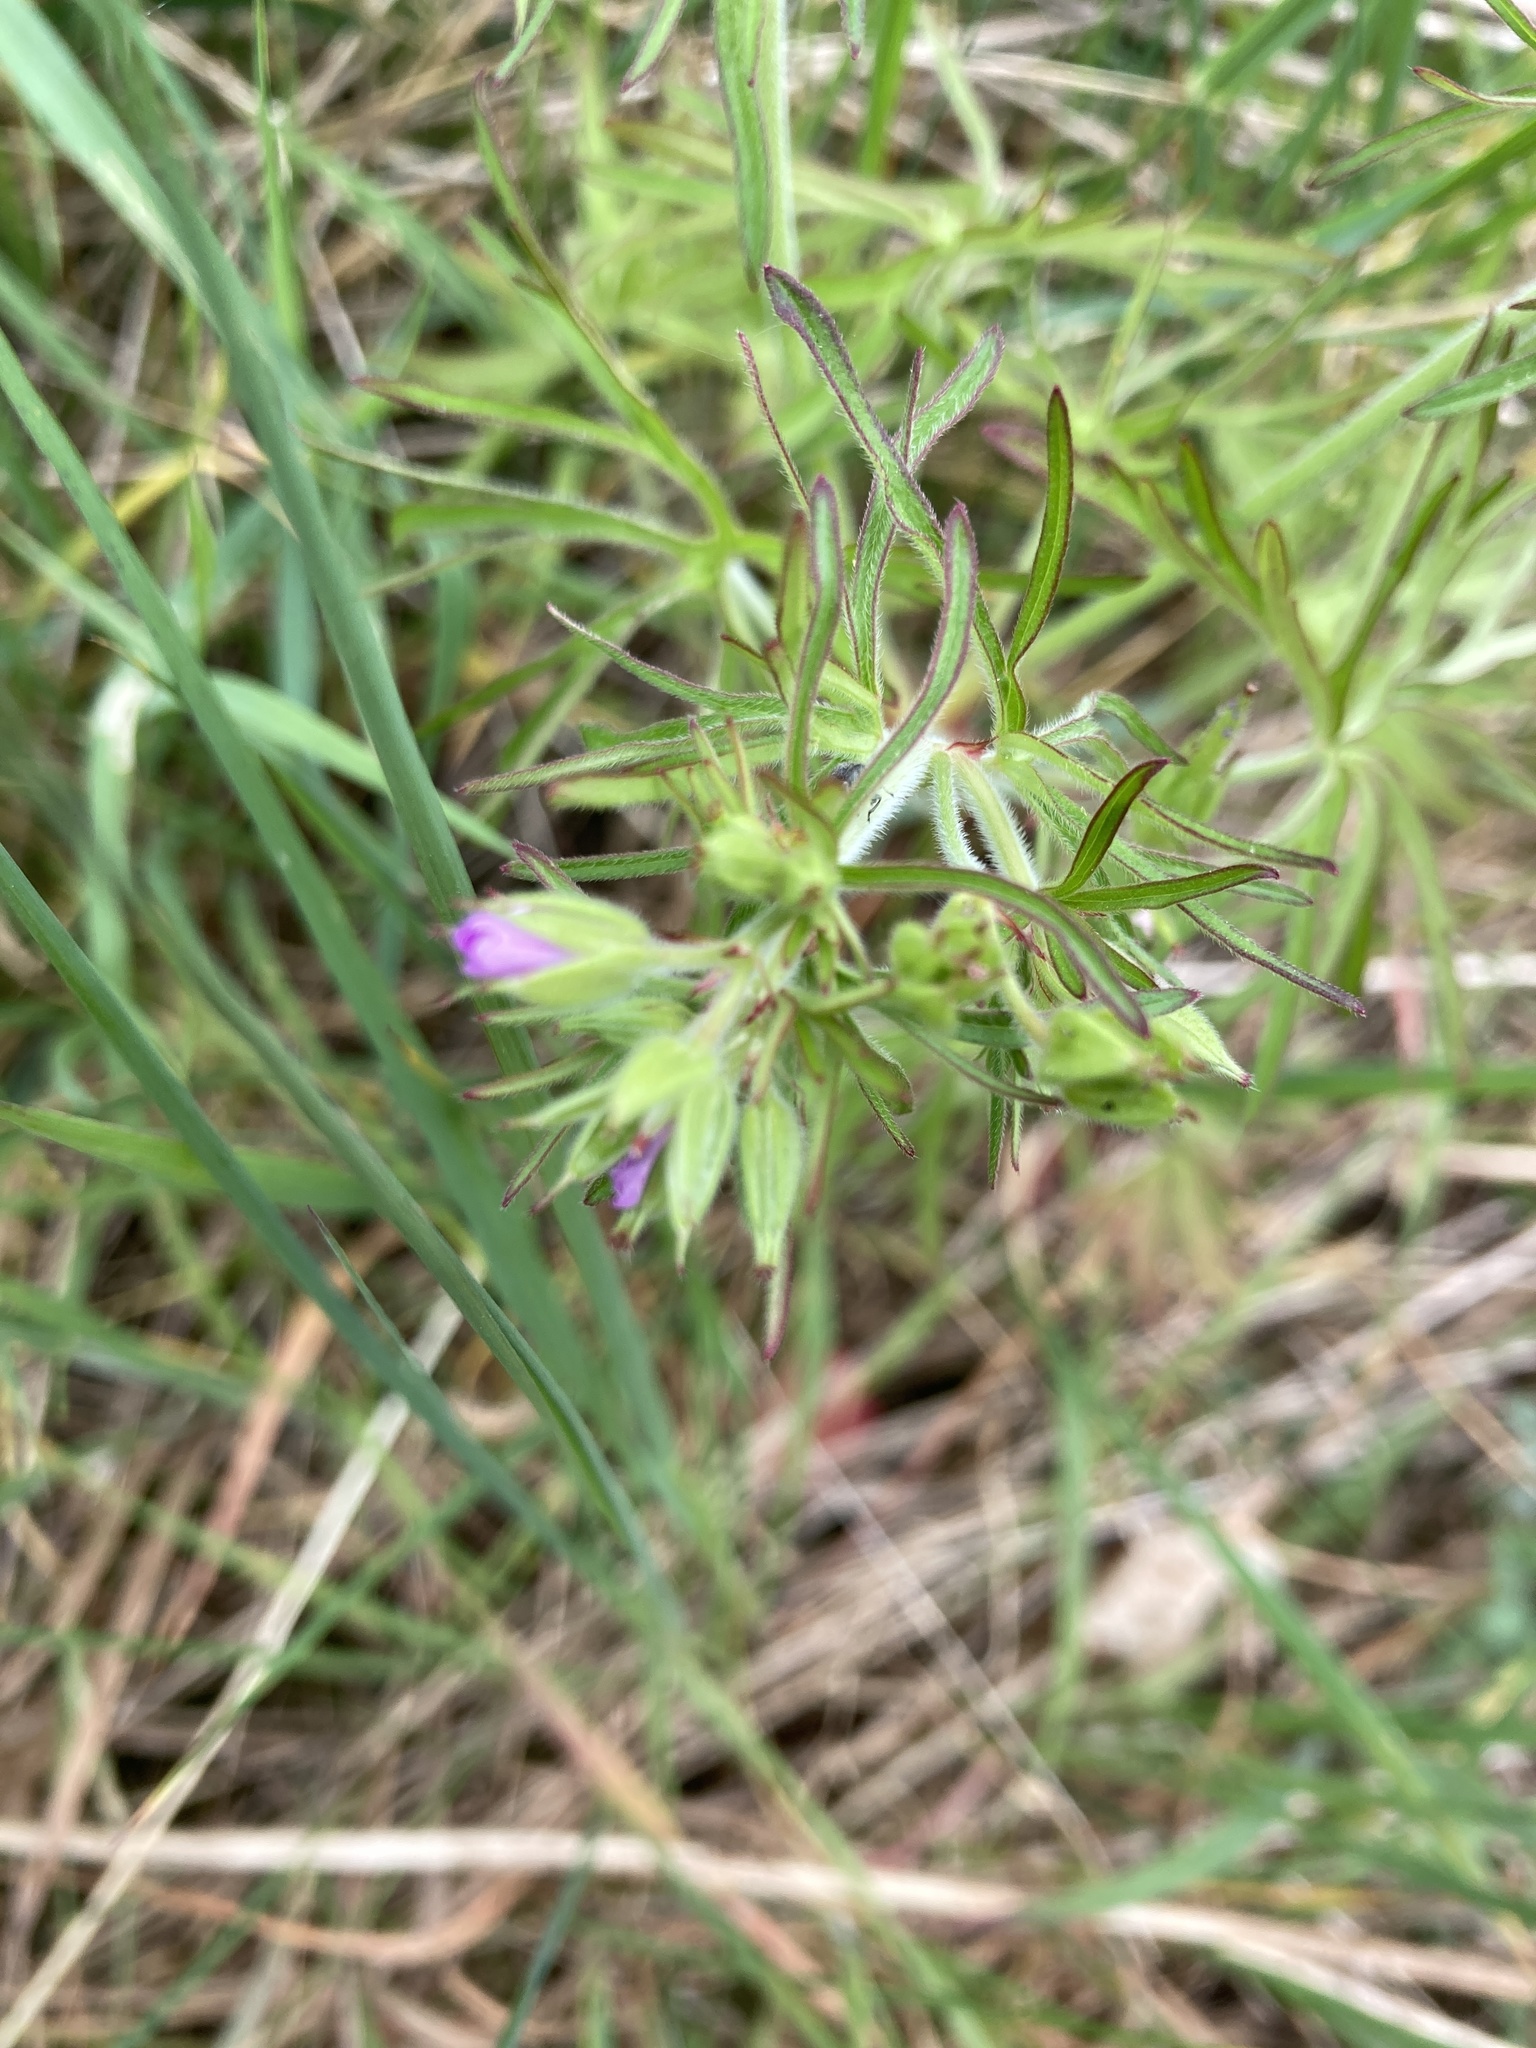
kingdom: Plantae
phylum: Tracheophyta
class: Magnoliopsida
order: Geraniales
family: Geraniaceae
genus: Geranium
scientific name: Geranium dissectum
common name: Cut-leaved crane's-bill
